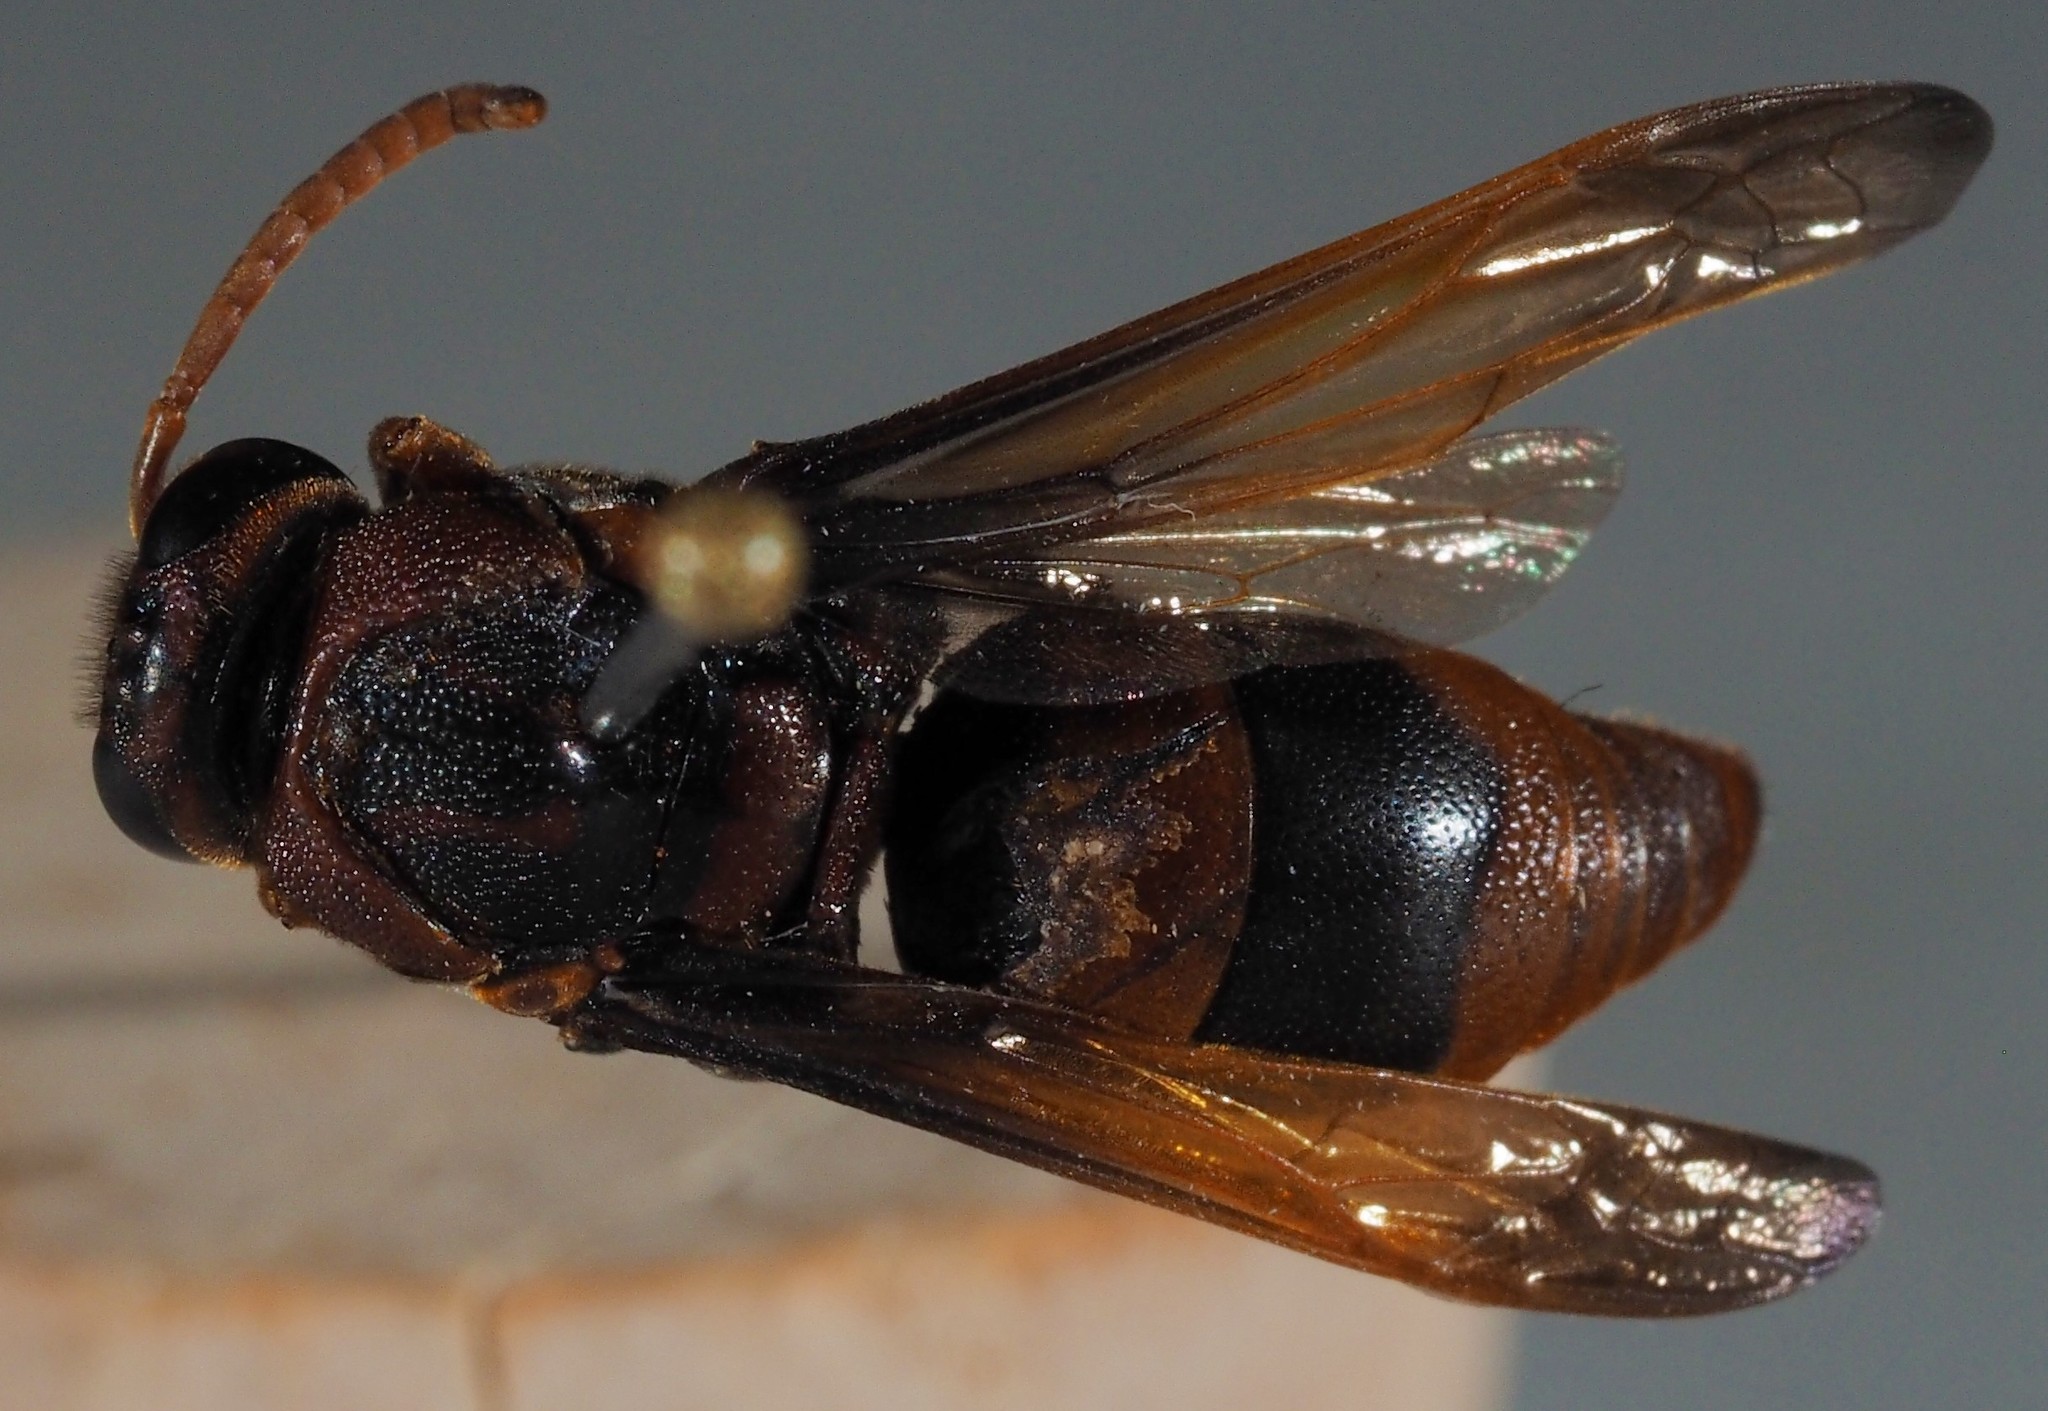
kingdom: Animalia
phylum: Arthropoda
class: Insecta
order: Hymenoptera
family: Eumenidae
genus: Rhynchium
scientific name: Rhynchium brunneum
